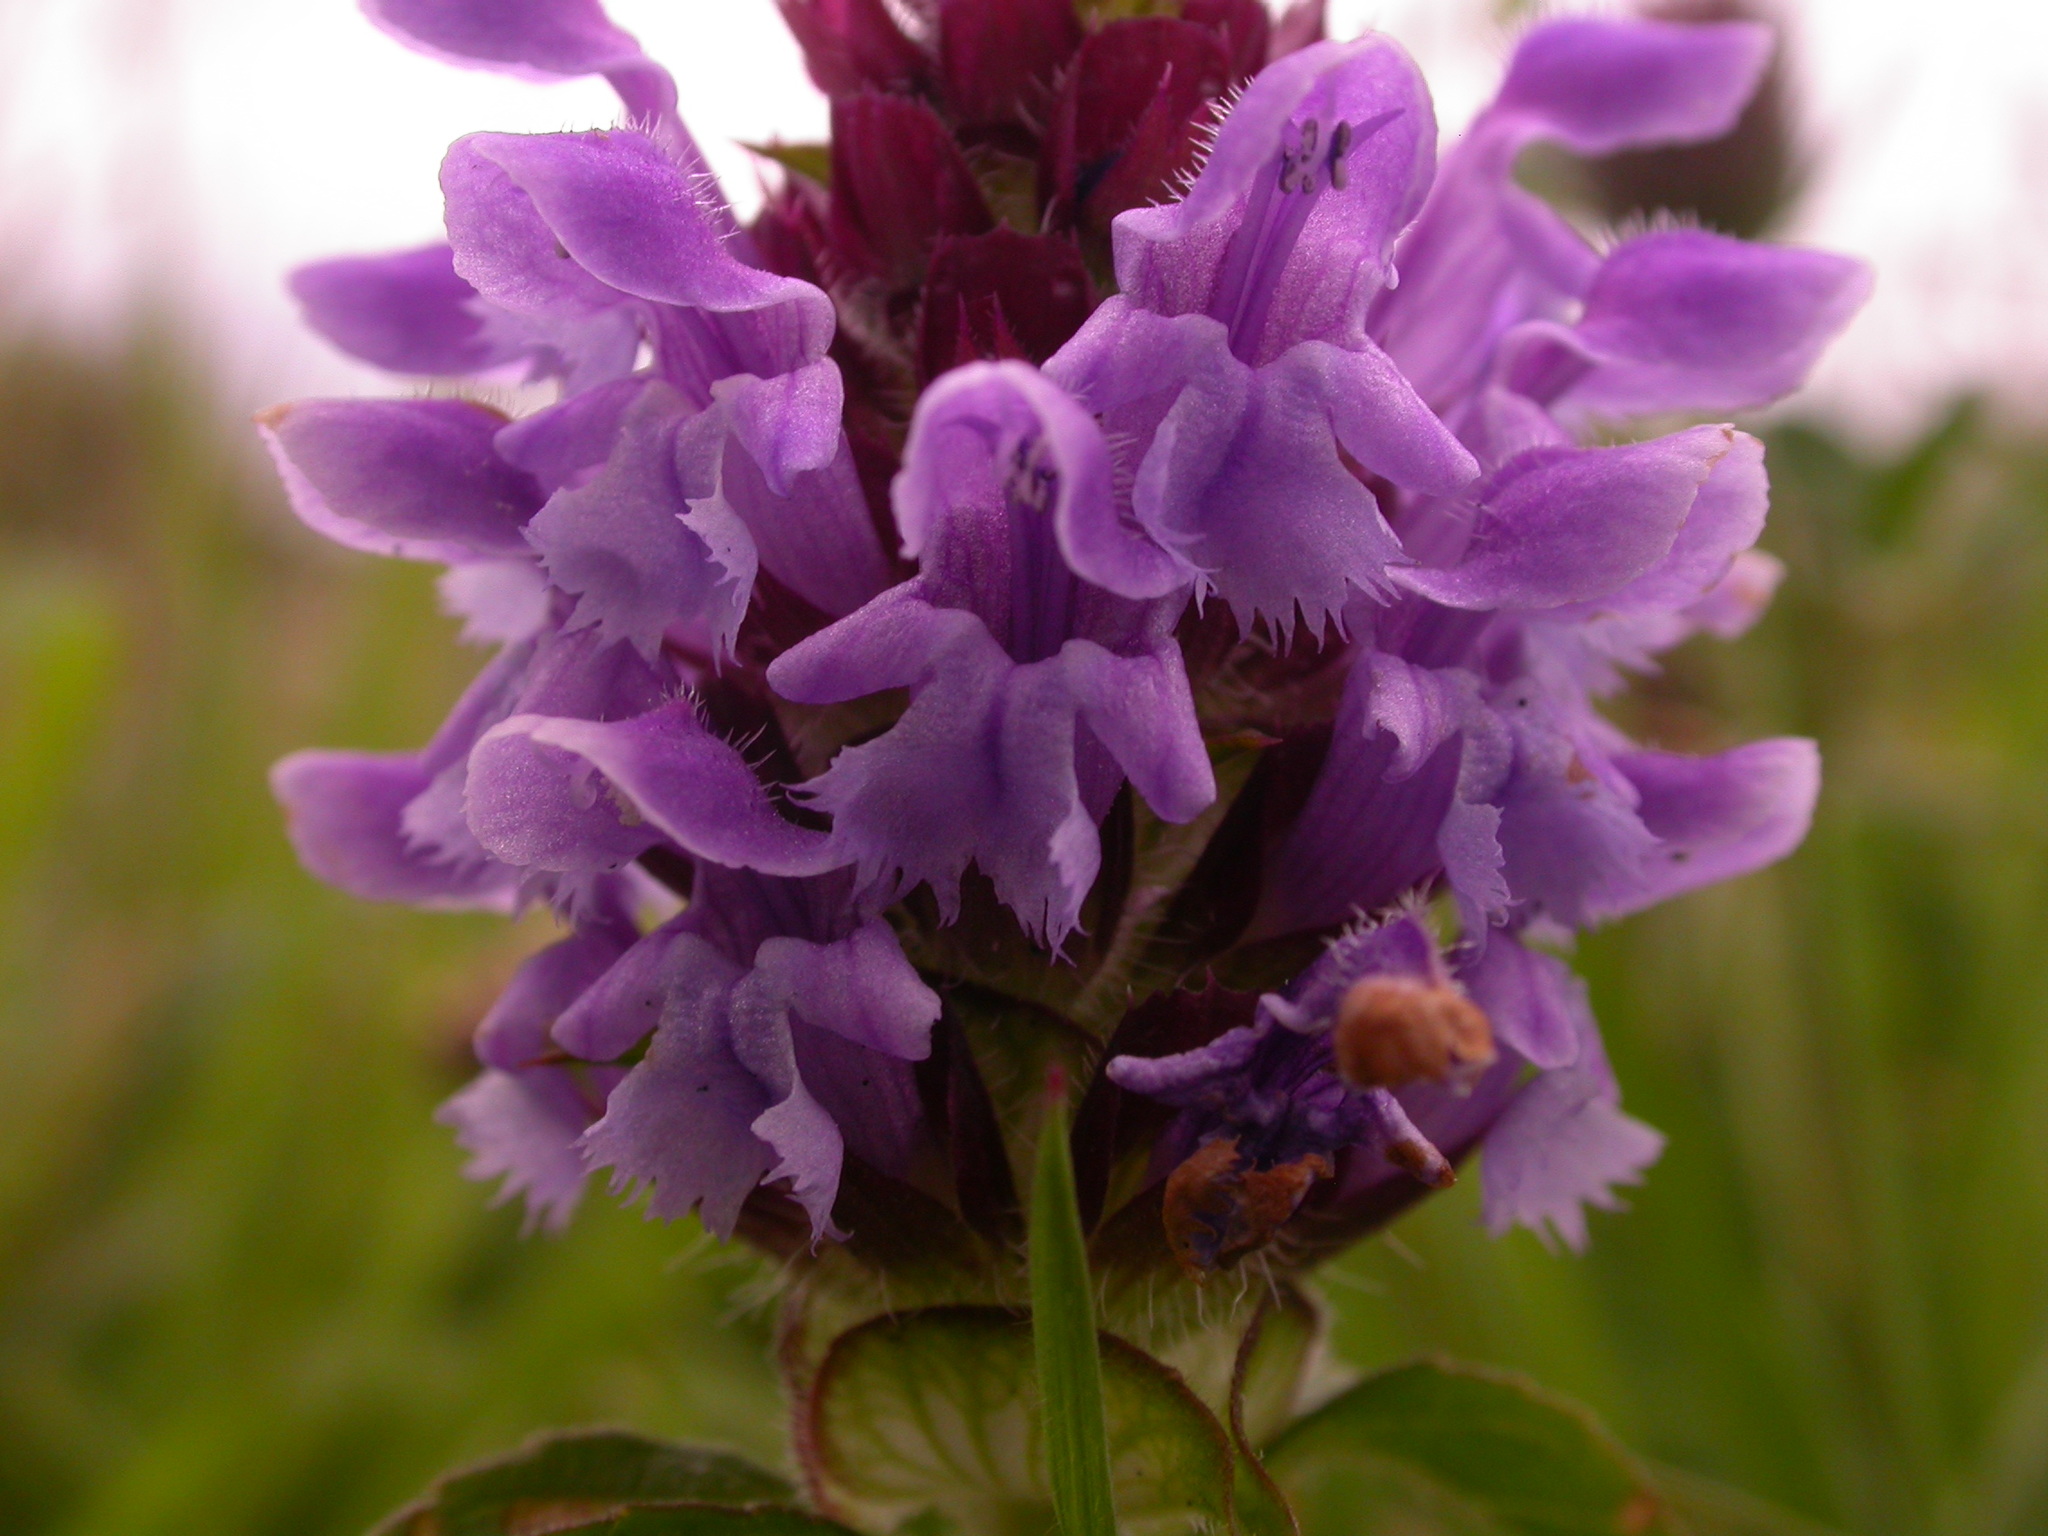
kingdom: Plantae
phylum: Tracheophyta
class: Magnoliopsida
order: Lamiales
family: Lamiaceae
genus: Prunella
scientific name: Prunella vulgaris
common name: Heal-all
